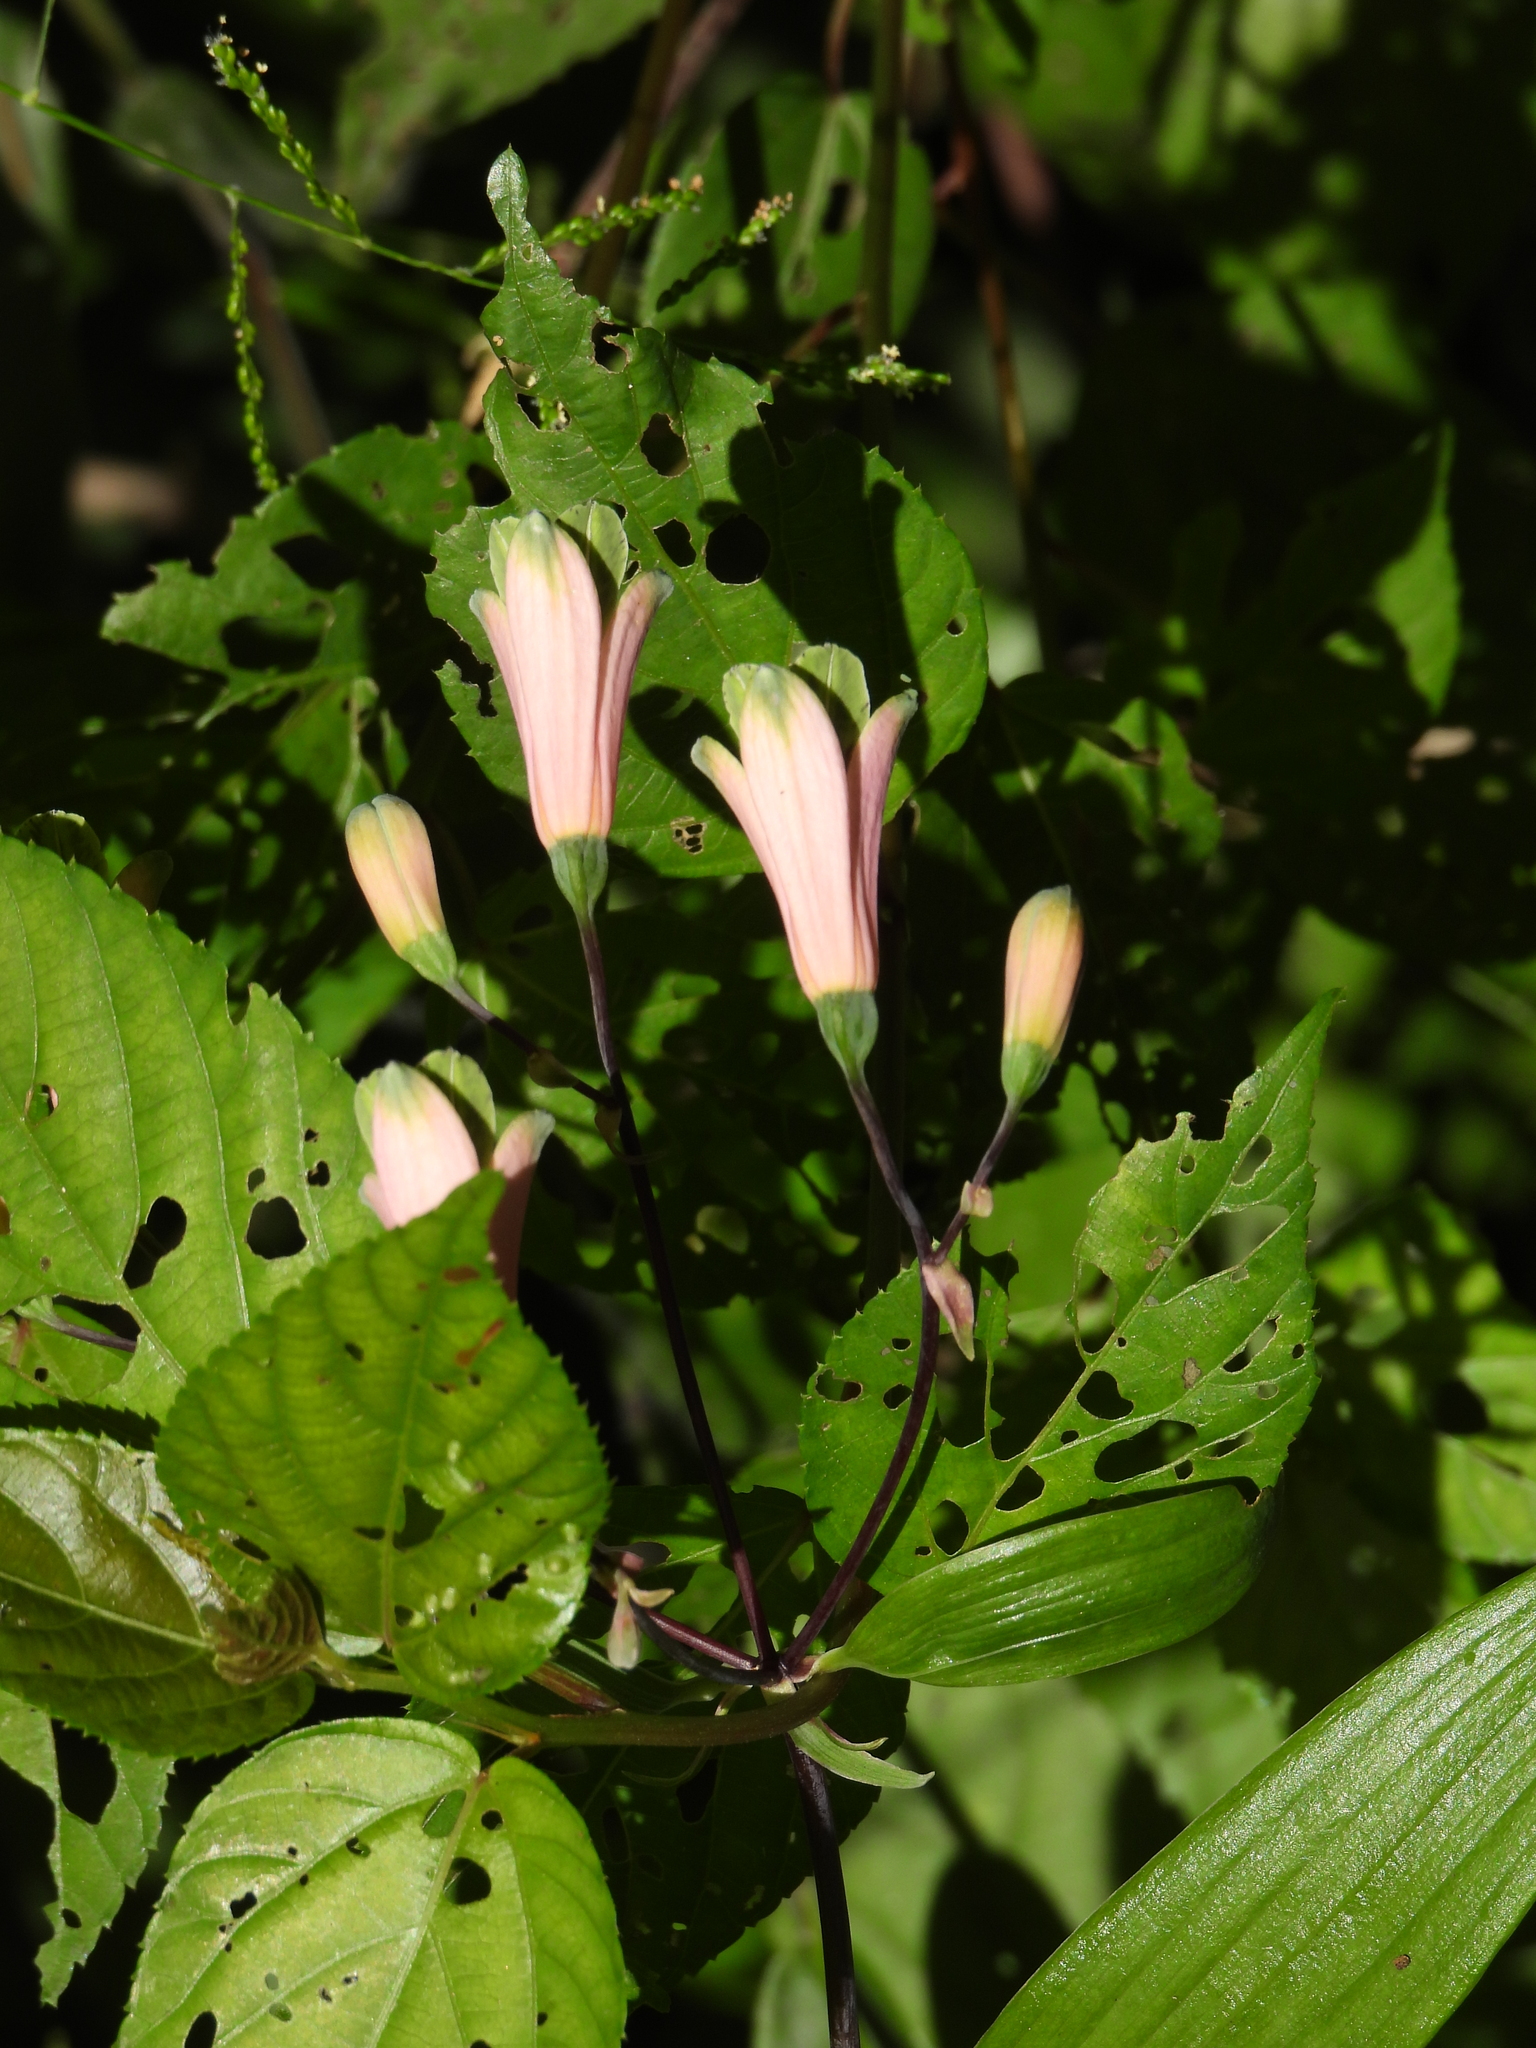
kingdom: Plantae
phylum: Tracheophyta
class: Liliopsida
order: Liliales
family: Alstroemeriaceae
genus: Bomarea
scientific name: Bomarea edulis
